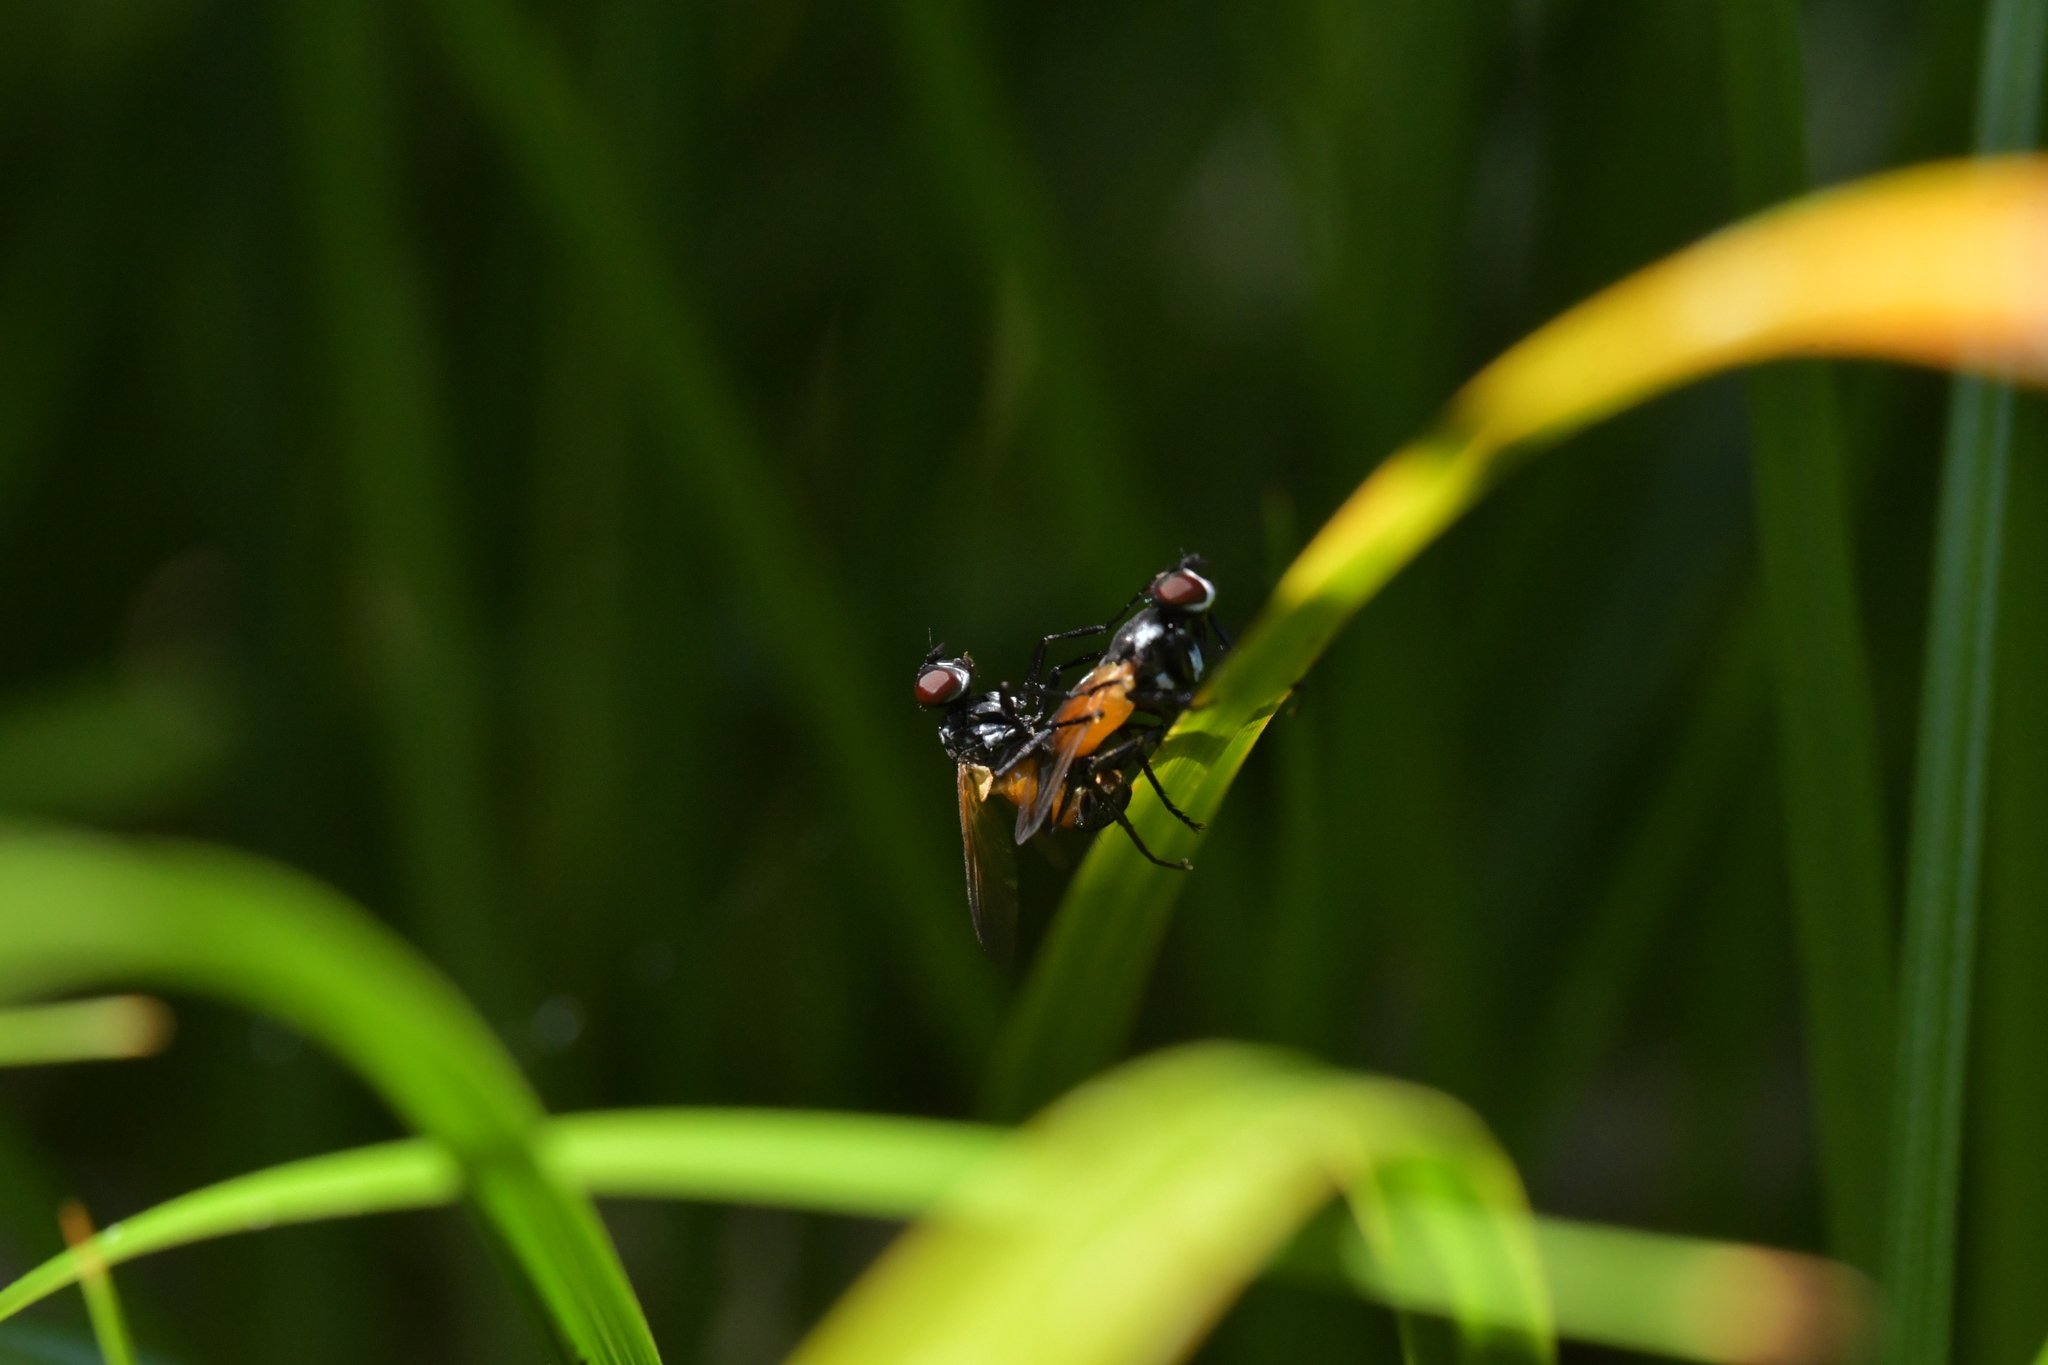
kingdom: Animalia
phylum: Arthropoda
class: Insecta
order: Diptera
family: Tachinidae
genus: Huttonobesseria
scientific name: Huttonobesseria verecunda
